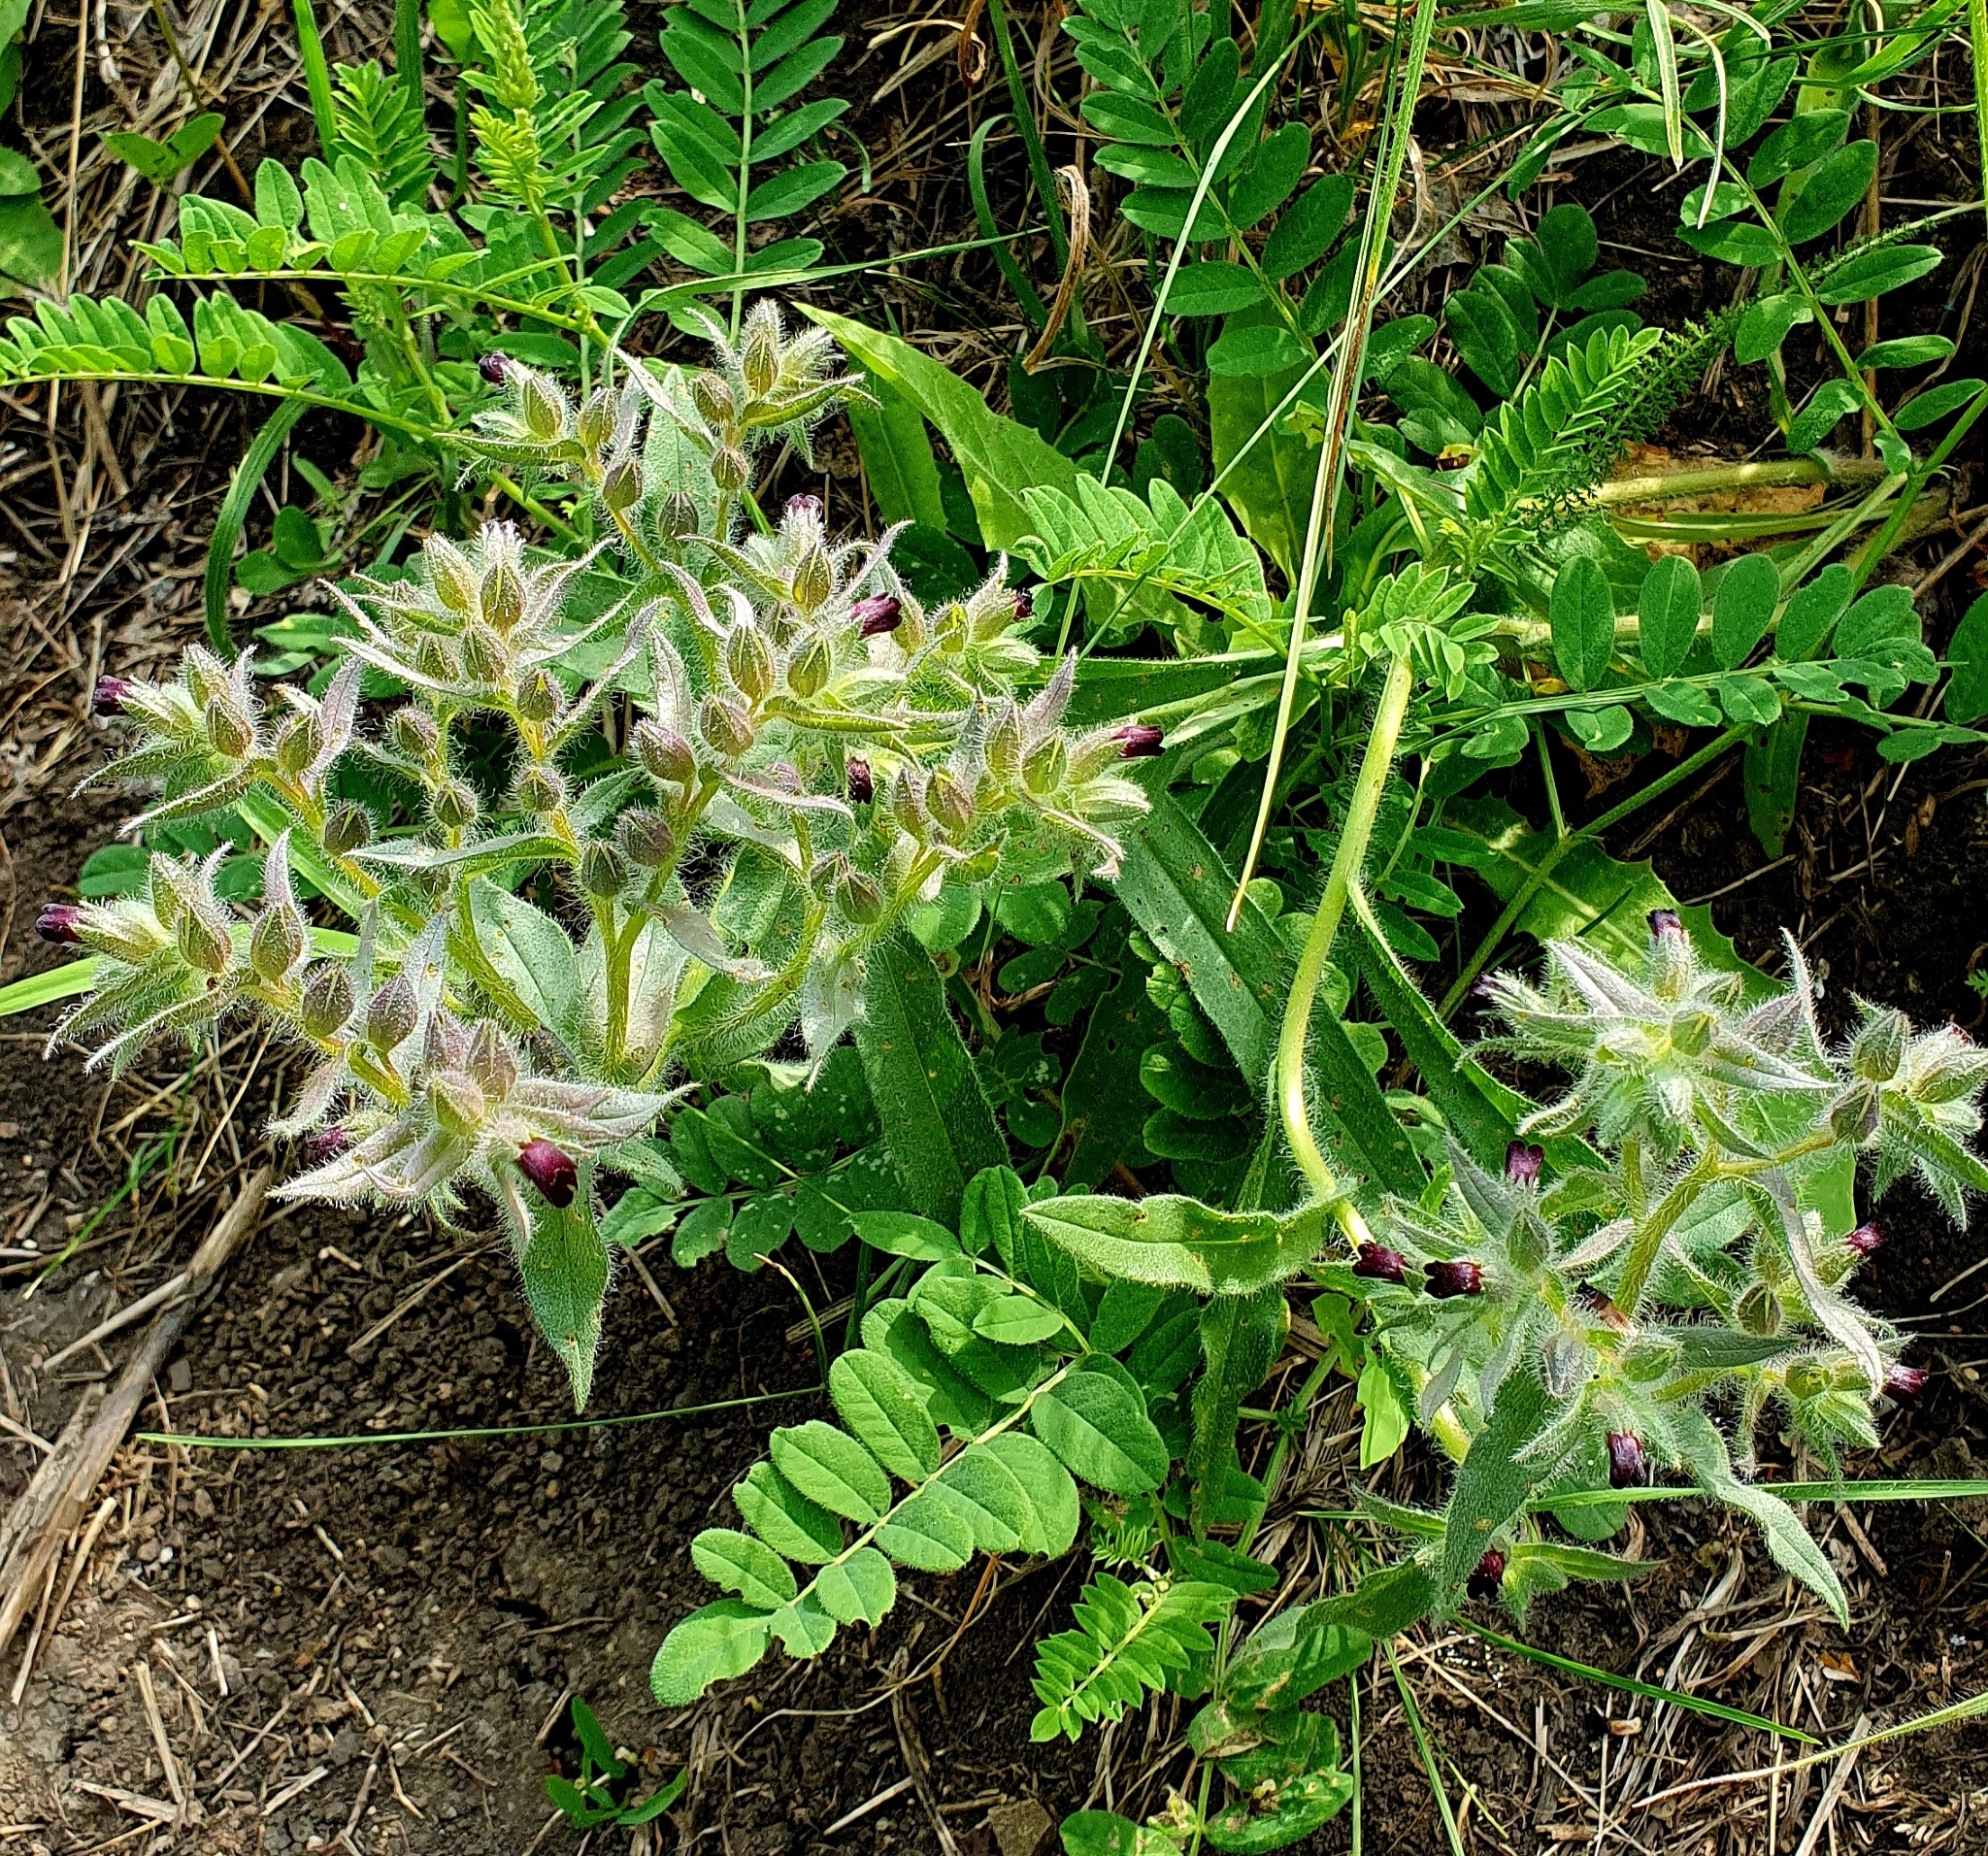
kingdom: Plantae
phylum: Tracheophyta
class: Magnoliopsida
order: Boraginales
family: Boraginaceae
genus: Nonea
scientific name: Nonea pulla
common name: Brown nonea
